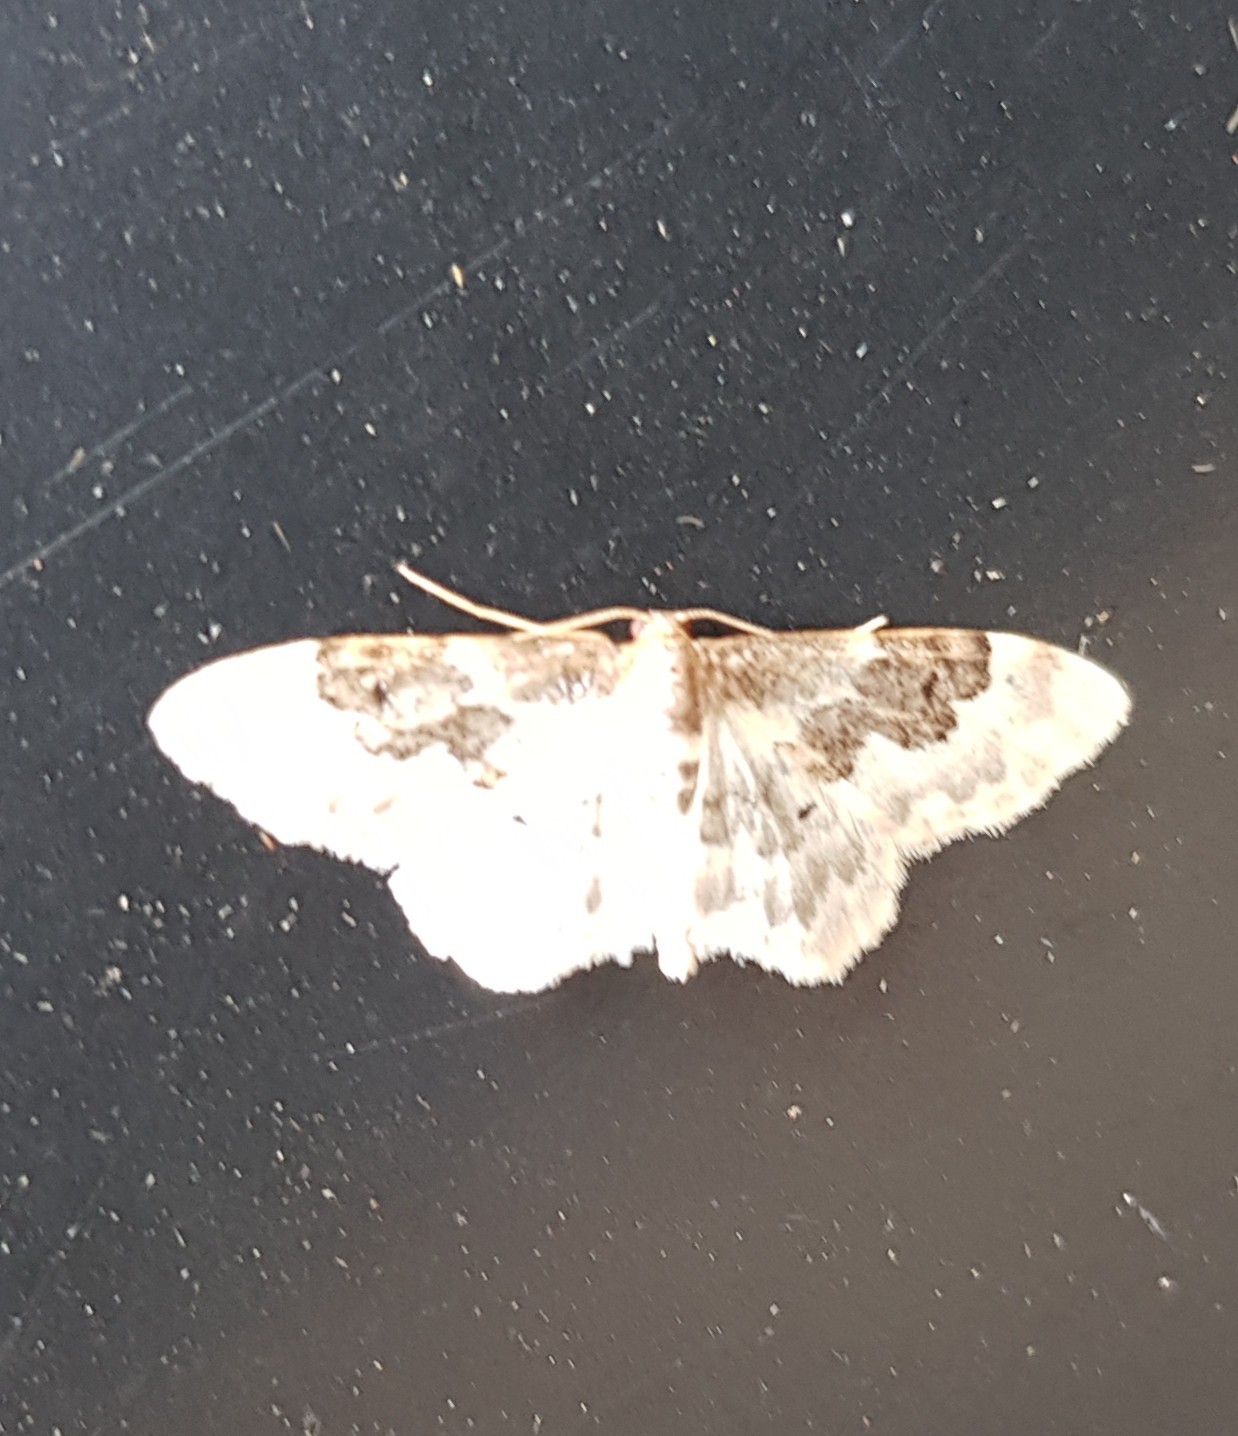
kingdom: Animalia
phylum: Arthropoda
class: Insecta
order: Lepidoptera
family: Geometridae
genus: Idaea
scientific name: Idaea rusticata
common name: Least carpet
